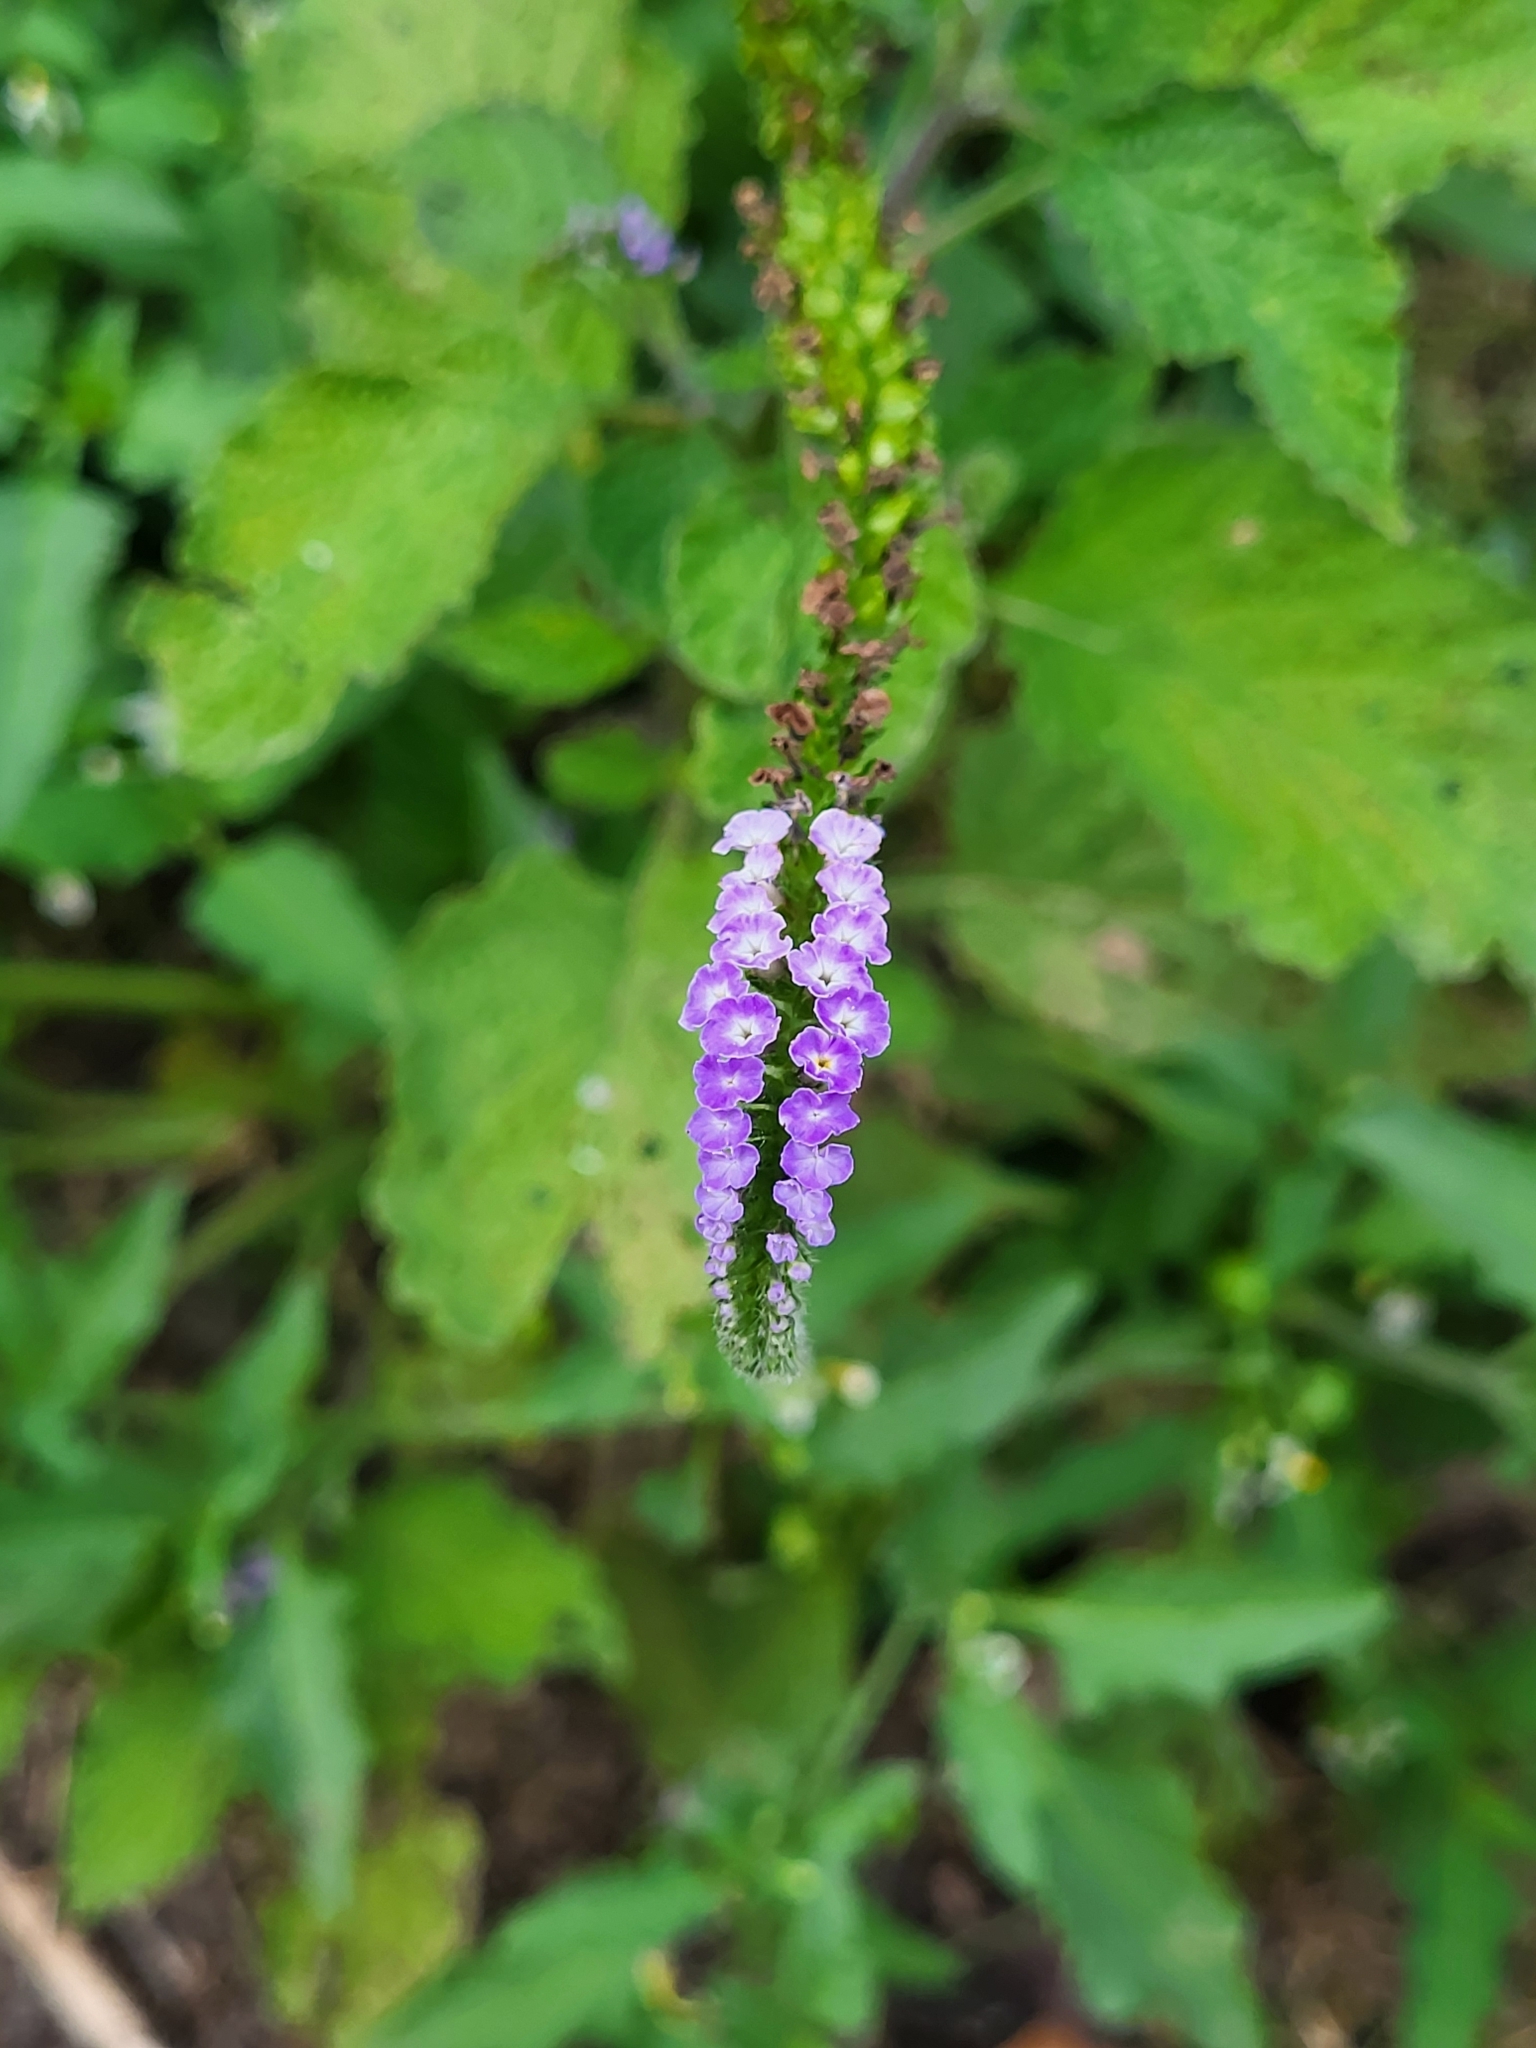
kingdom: Plantae
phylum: Tracheophyta
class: Magnoliopsida
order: Boraginales
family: Heliotropiaceae
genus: Heliotropium
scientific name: Heliotropium indicum
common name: Indian heliotrope
